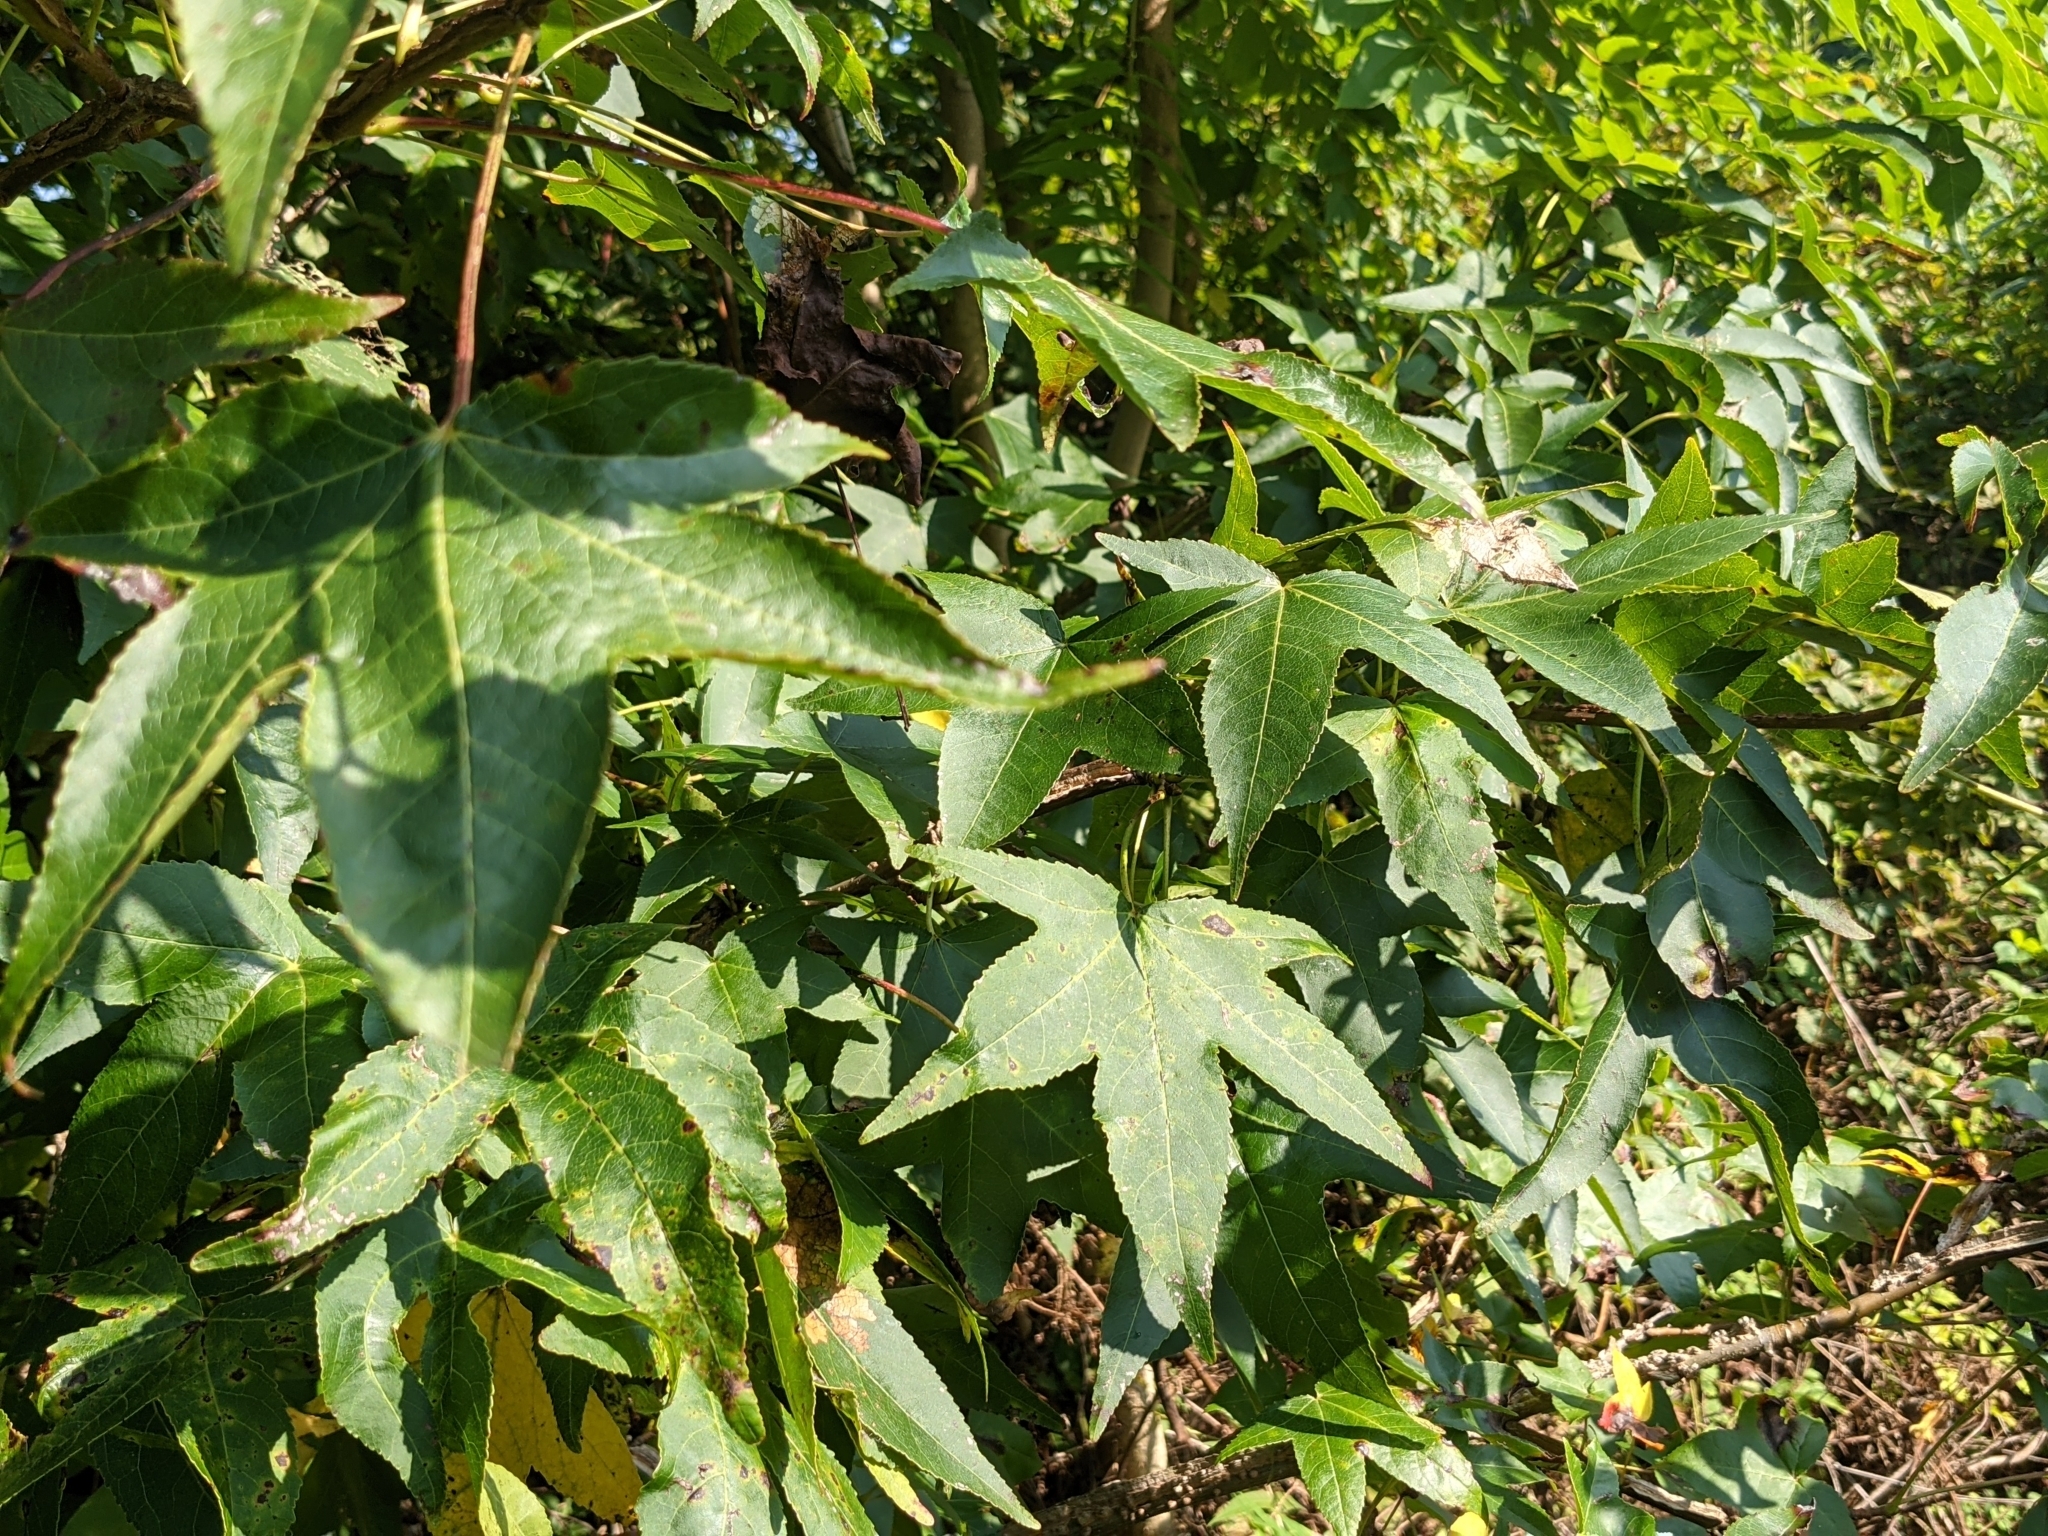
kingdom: Plantae
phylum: Tracheophyta
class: Magnoliopsida
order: Saxifragales
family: Altingiaceae
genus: Liquidambar
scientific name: Liquidambar styraciflua
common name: Sweet gum
